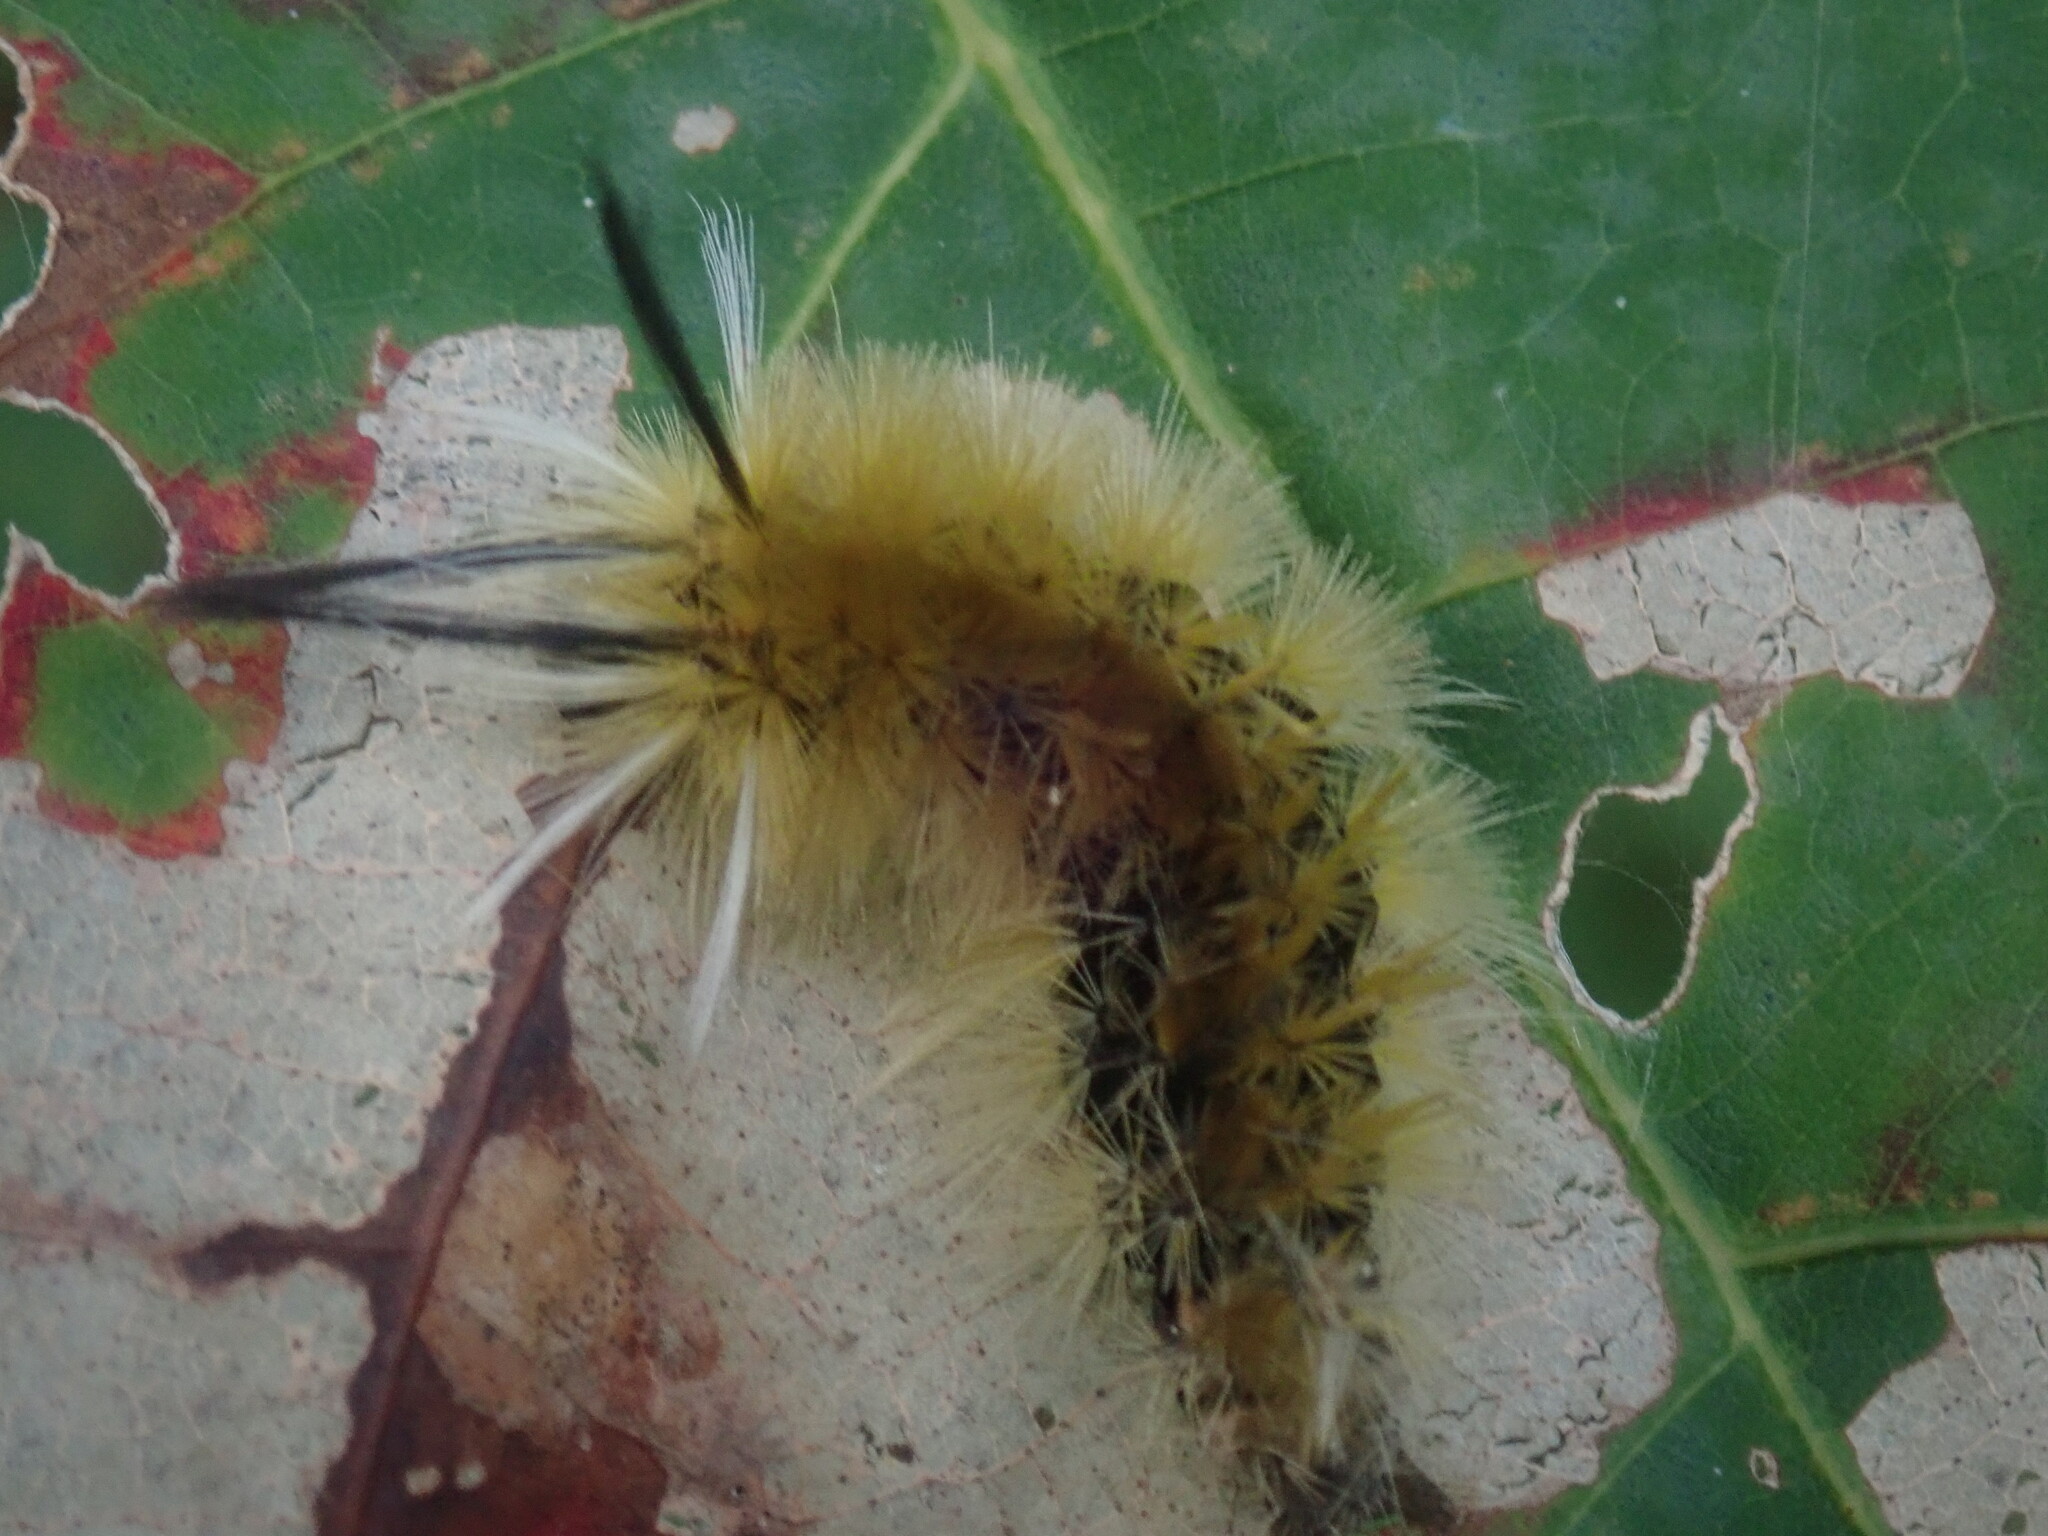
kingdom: Animalia
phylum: Arthropoda
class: Insecta
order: Lepidoptera
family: Erebidae
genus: Halysidota
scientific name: Halysidota tessellaris
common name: Banded tussock moth
